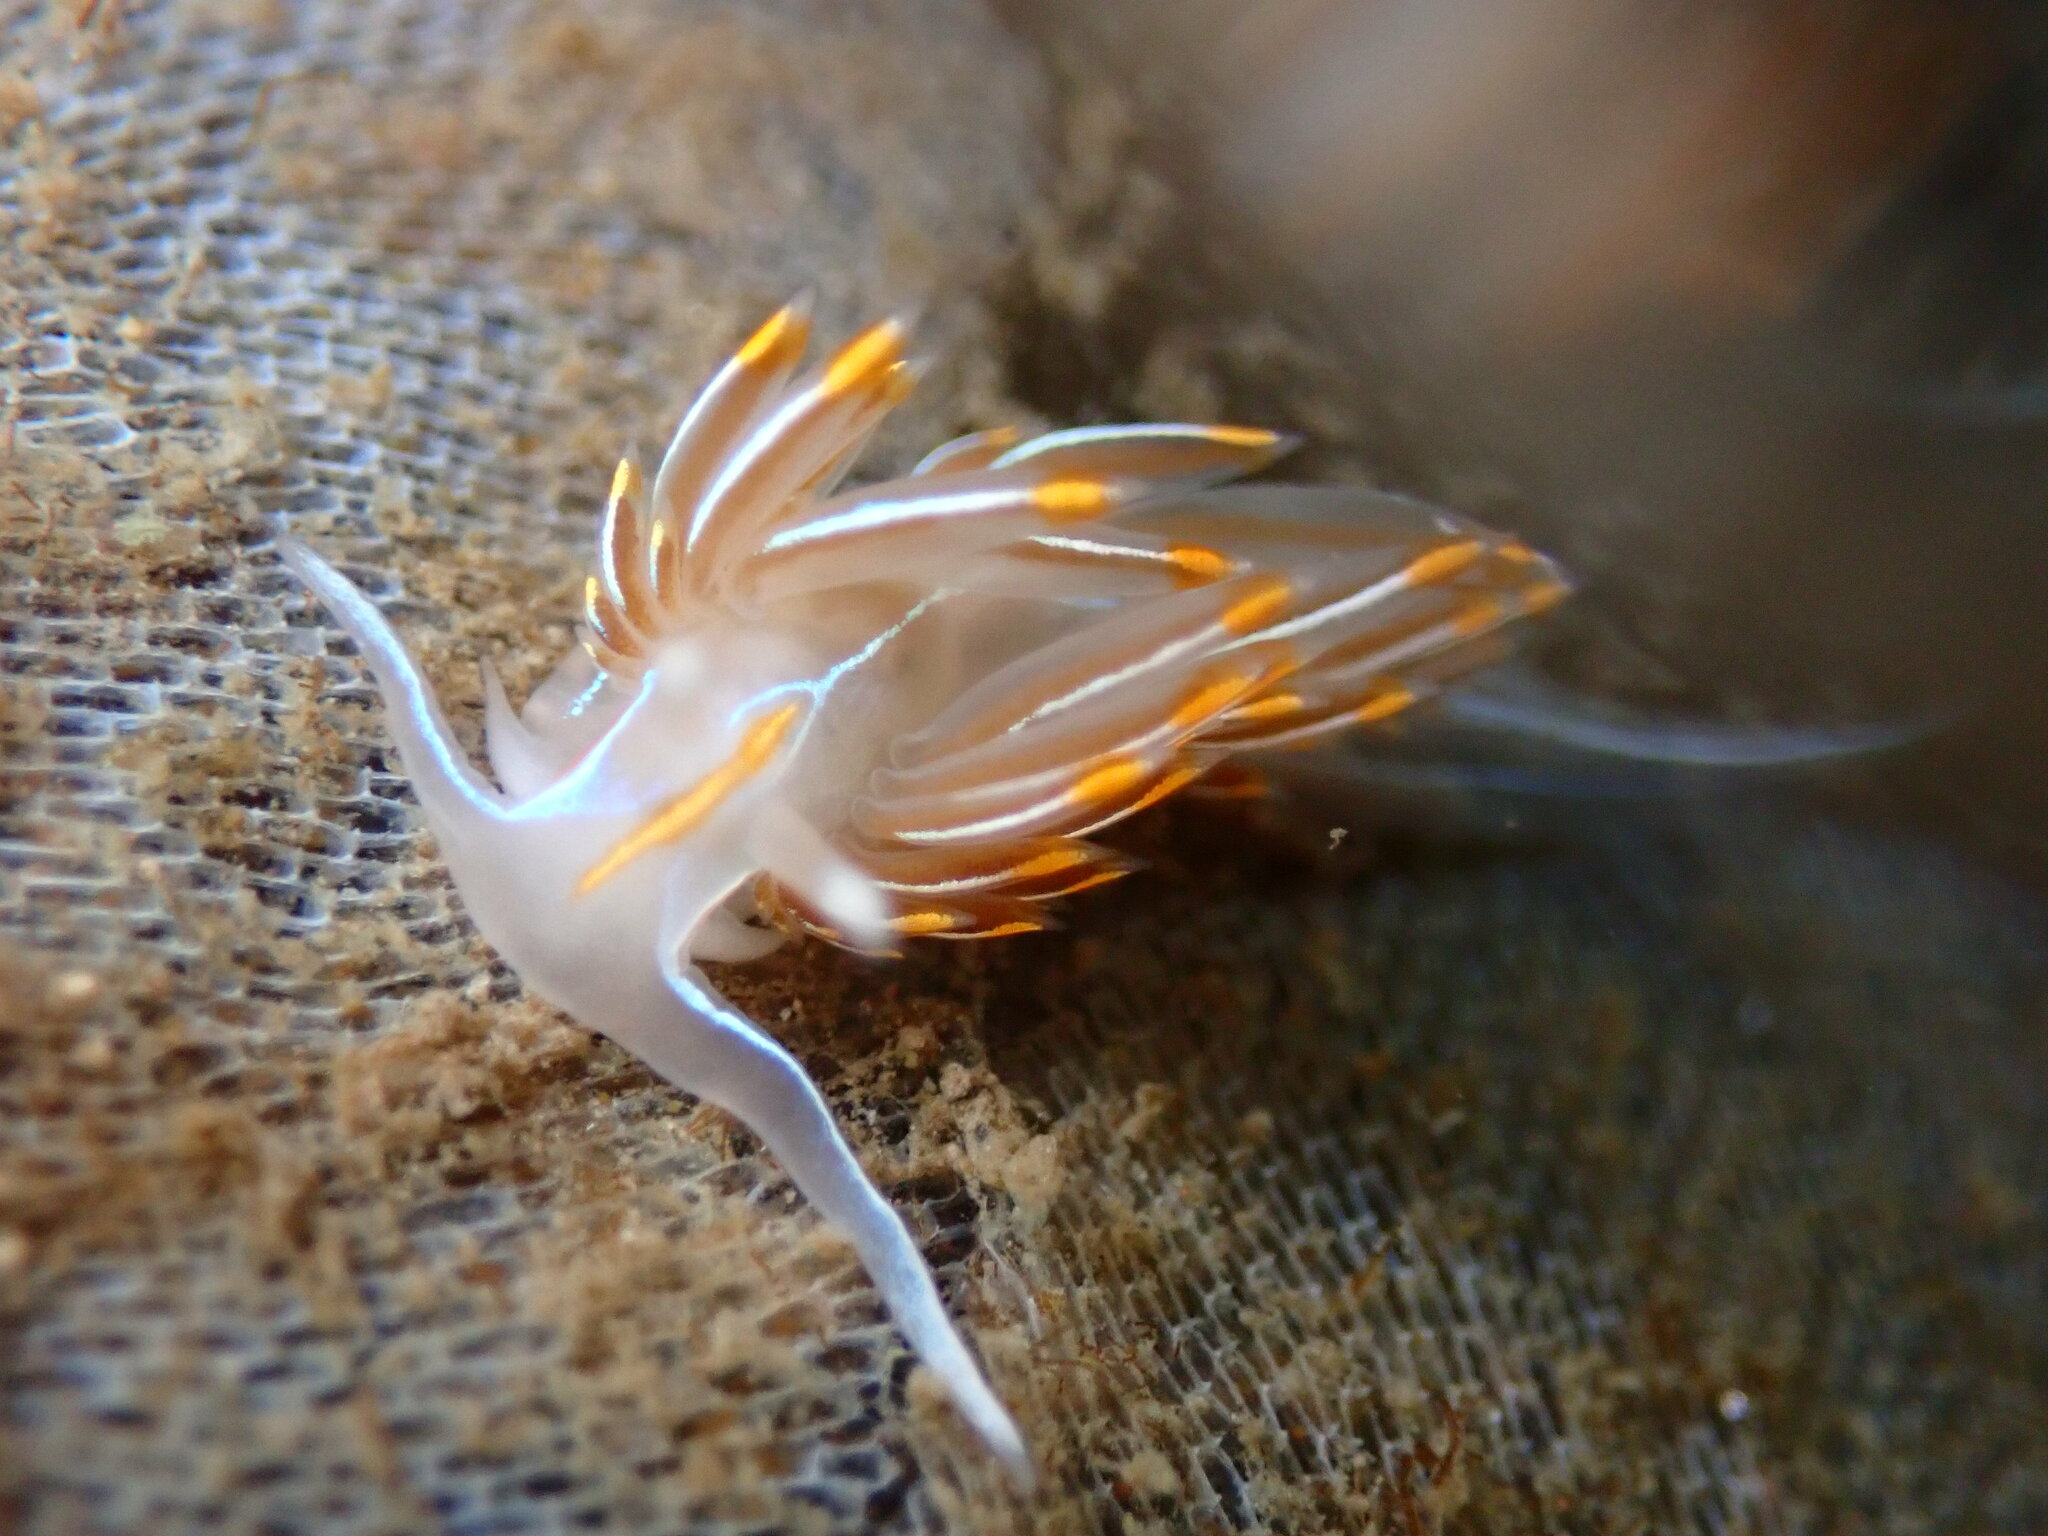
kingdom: Animalia
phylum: Mollusca
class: Gastropoda
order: Nudibranchia
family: Myrrhinidae
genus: Hermissenda
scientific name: Hermissenda crassicornis
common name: Hermissenda
